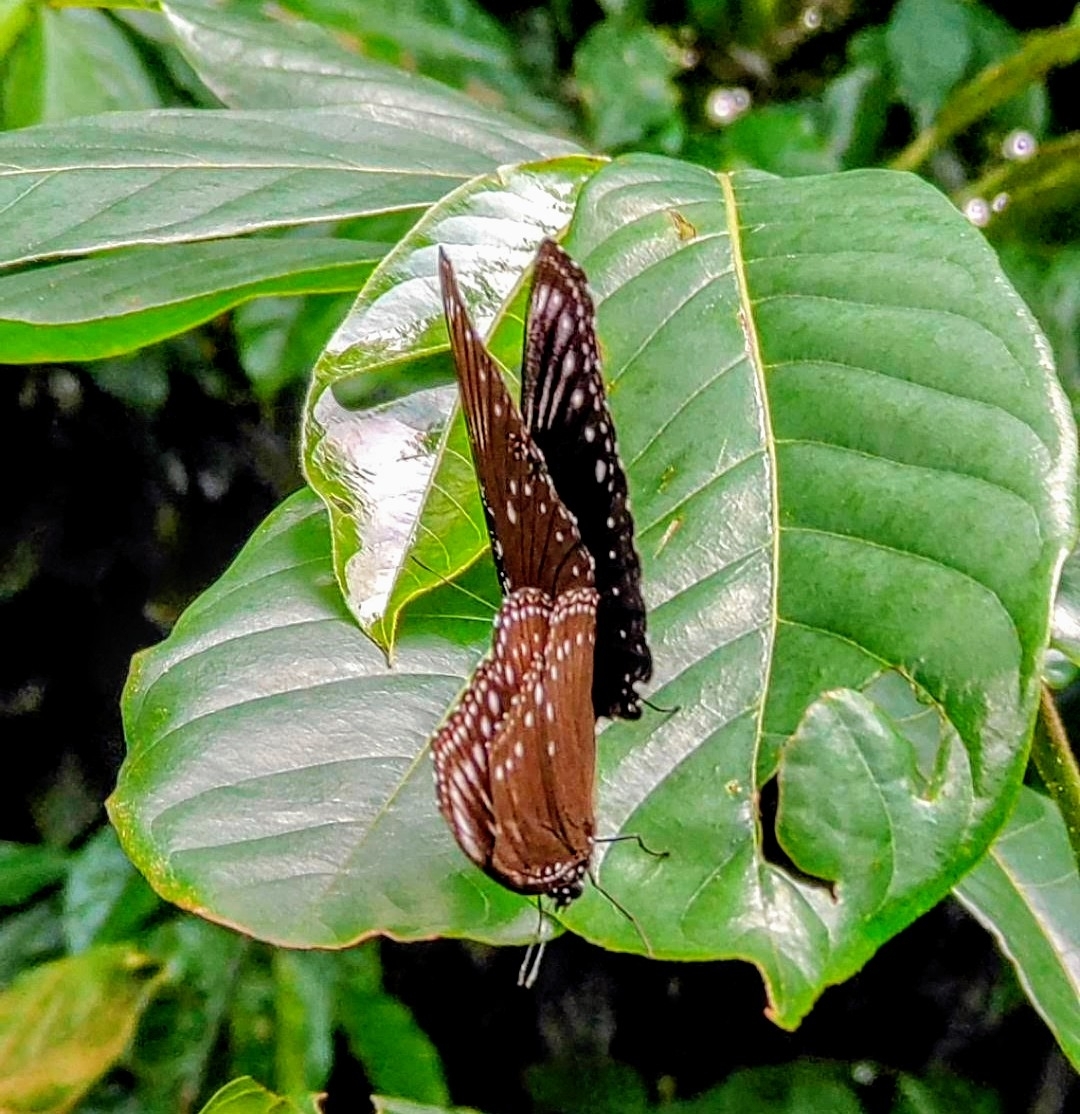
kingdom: Animalia
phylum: Arthropoda
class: Insecta
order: Lepidoptera
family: Nymphalidae
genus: Hypolimnas
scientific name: Hypolimnas anomala
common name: Malayan eggfly
